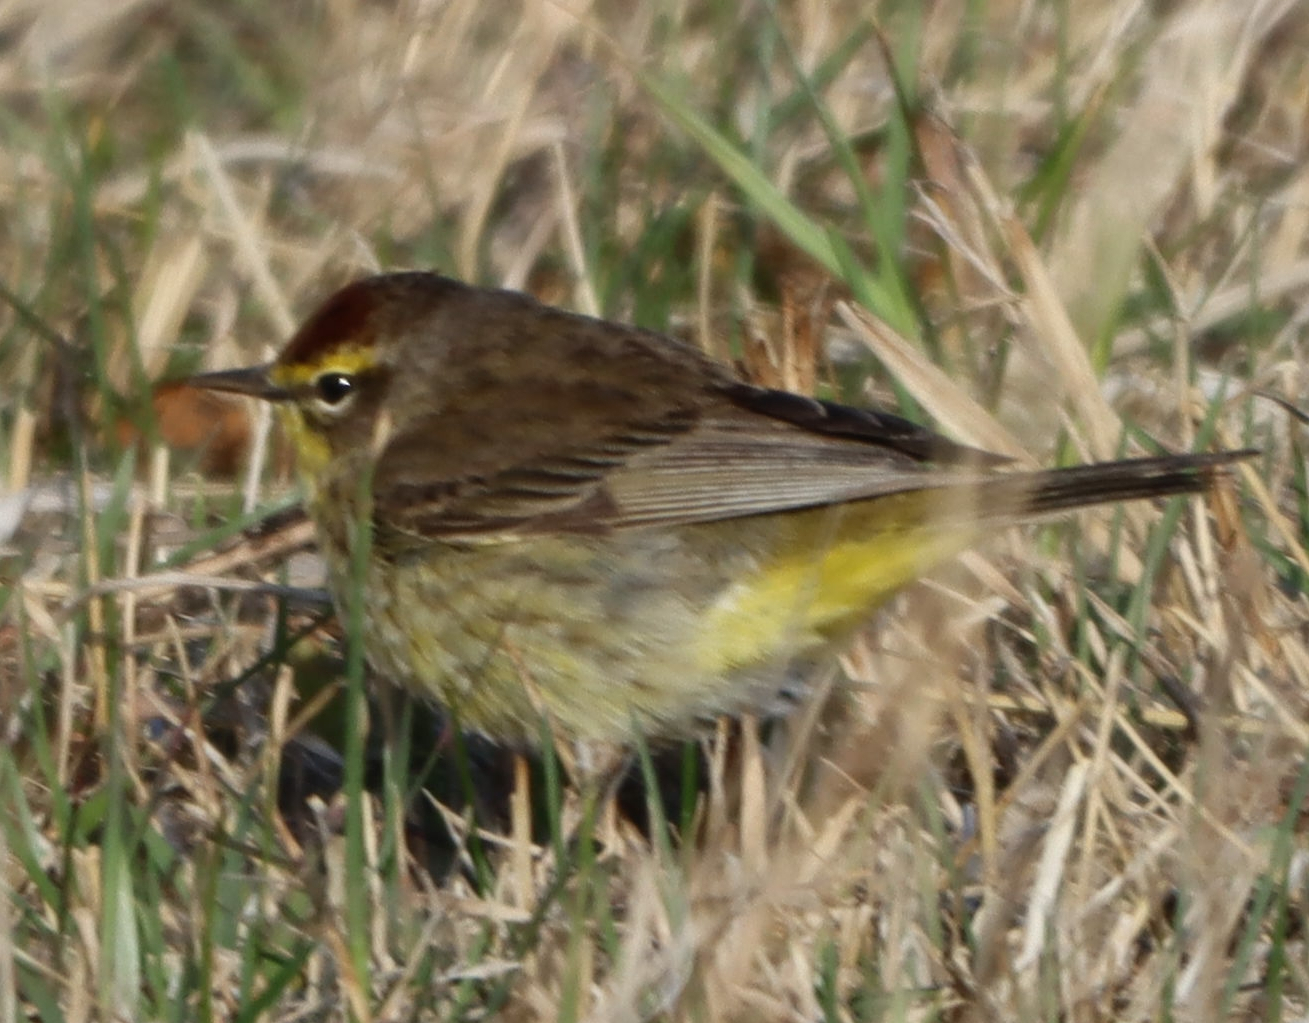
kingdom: Animalia
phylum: Chordata
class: Aves
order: Passeriformes
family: Parulidae
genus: Setophaga
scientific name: Setophaga palmarum
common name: Palm warbler
